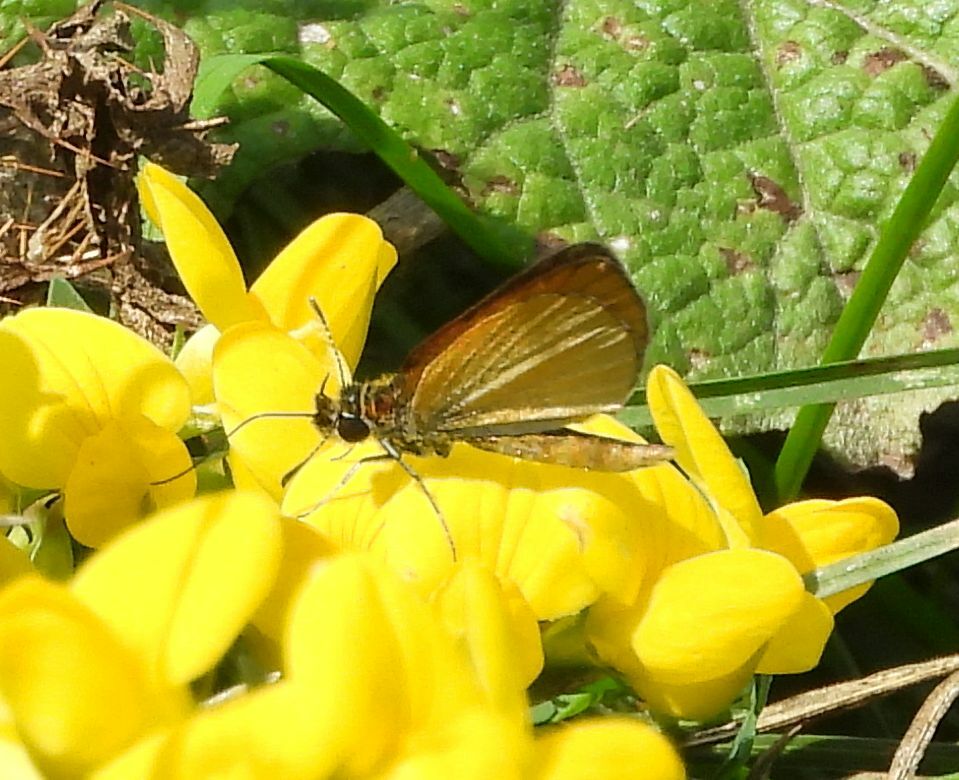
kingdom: Animalia
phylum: Arthropoda
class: Insecta
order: Lepidoptera
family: Hesperiidae
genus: Ancyloxypha
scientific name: Ancyloxypha numitor
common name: Least skipper
